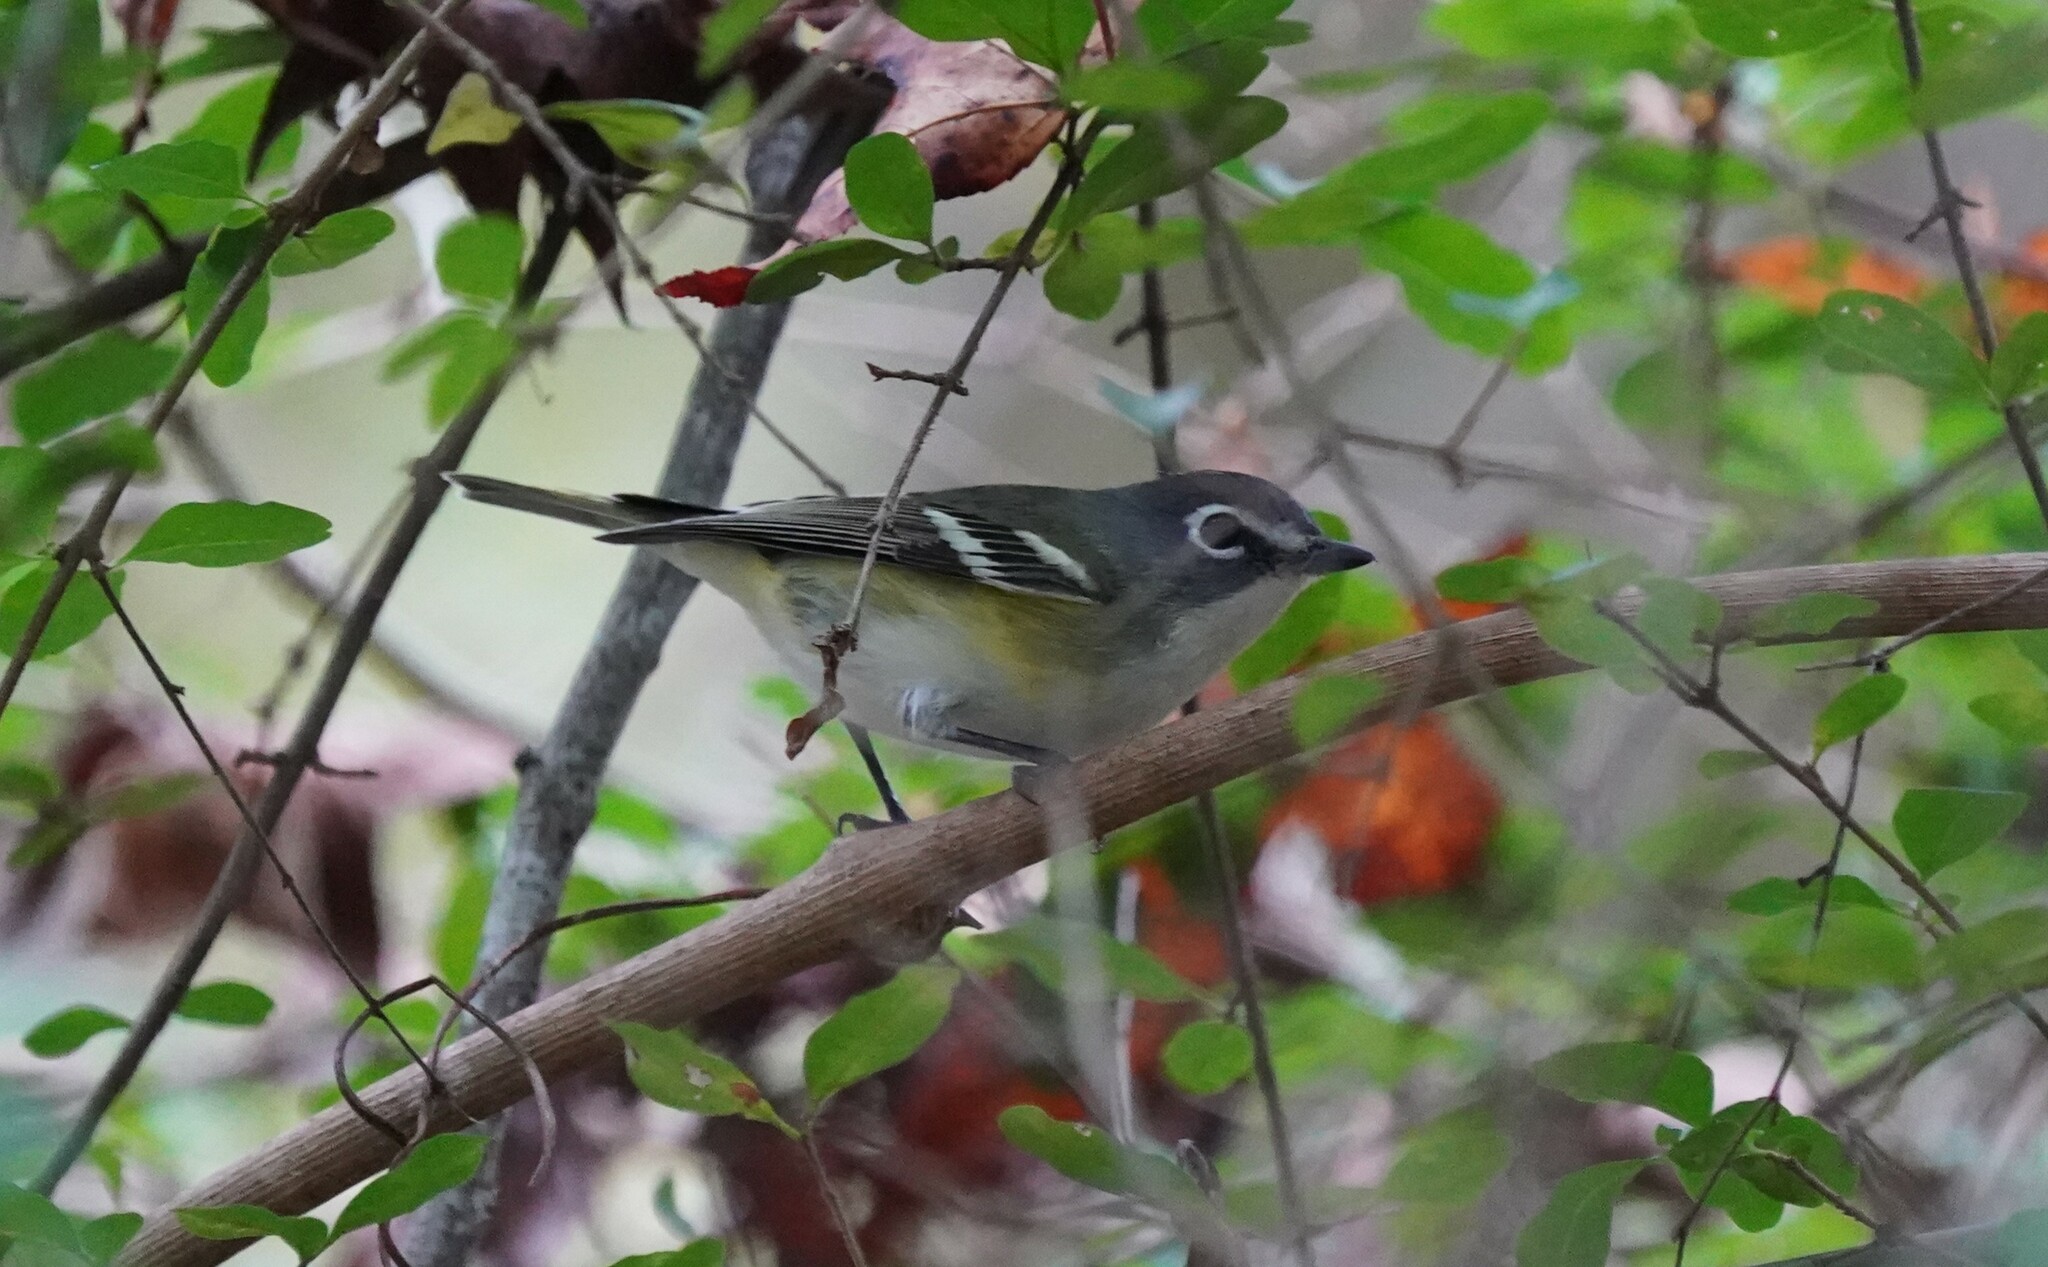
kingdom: Animalia
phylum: Chordata
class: Aves
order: Passeriformes
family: Vireonidae
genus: Vireo
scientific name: Vireo solitarius
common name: Blue-headed vireo
